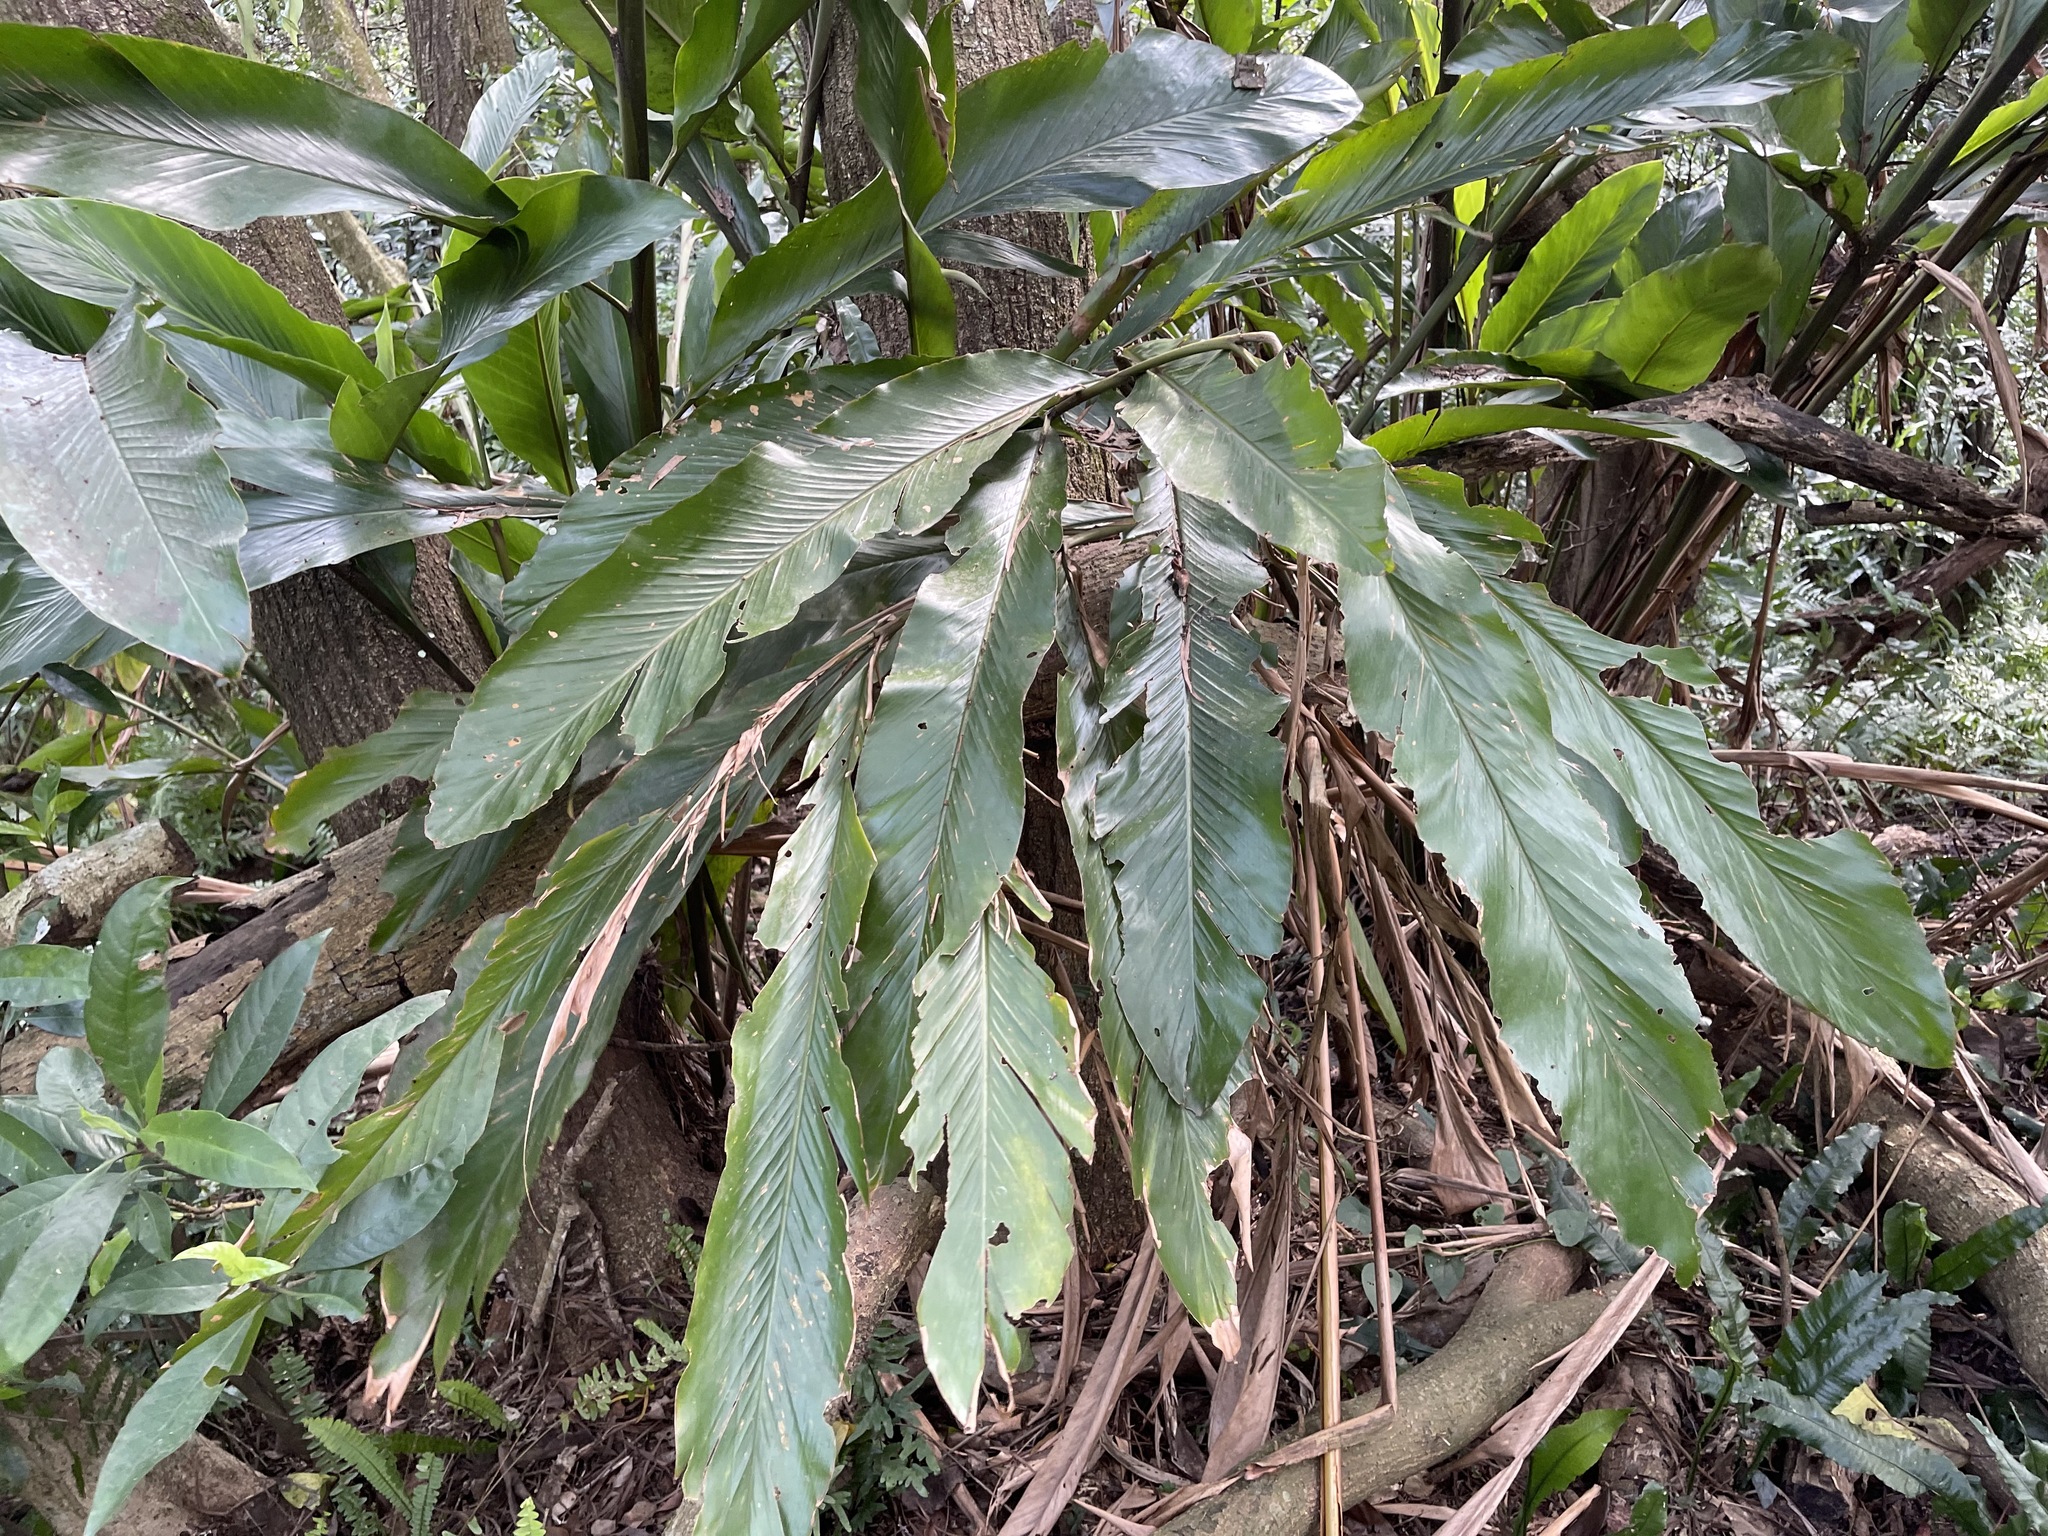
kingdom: Plantae
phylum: Tracheophyta
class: Liliopsida
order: Zingiberales
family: Zingiberaceae
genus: Alpinia
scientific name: Alpinia uraiensis
